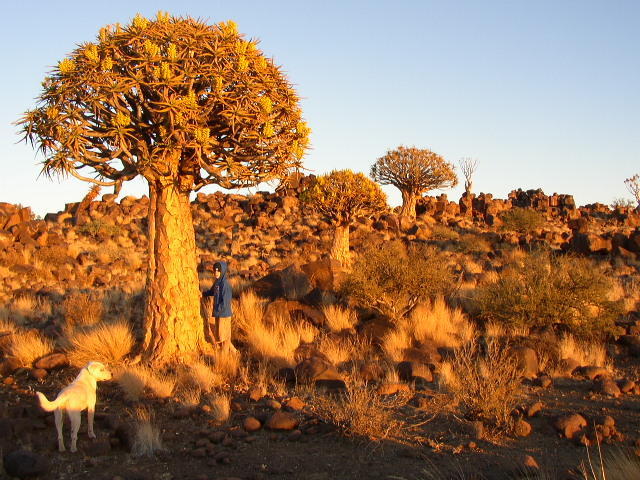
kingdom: Plantae
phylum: Tracheophyta
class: Liliopsida
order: Asparagales
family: Asphodelaceae
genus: Aloidendron
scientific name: Aloidendron dichotomum
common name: Quiver tree
